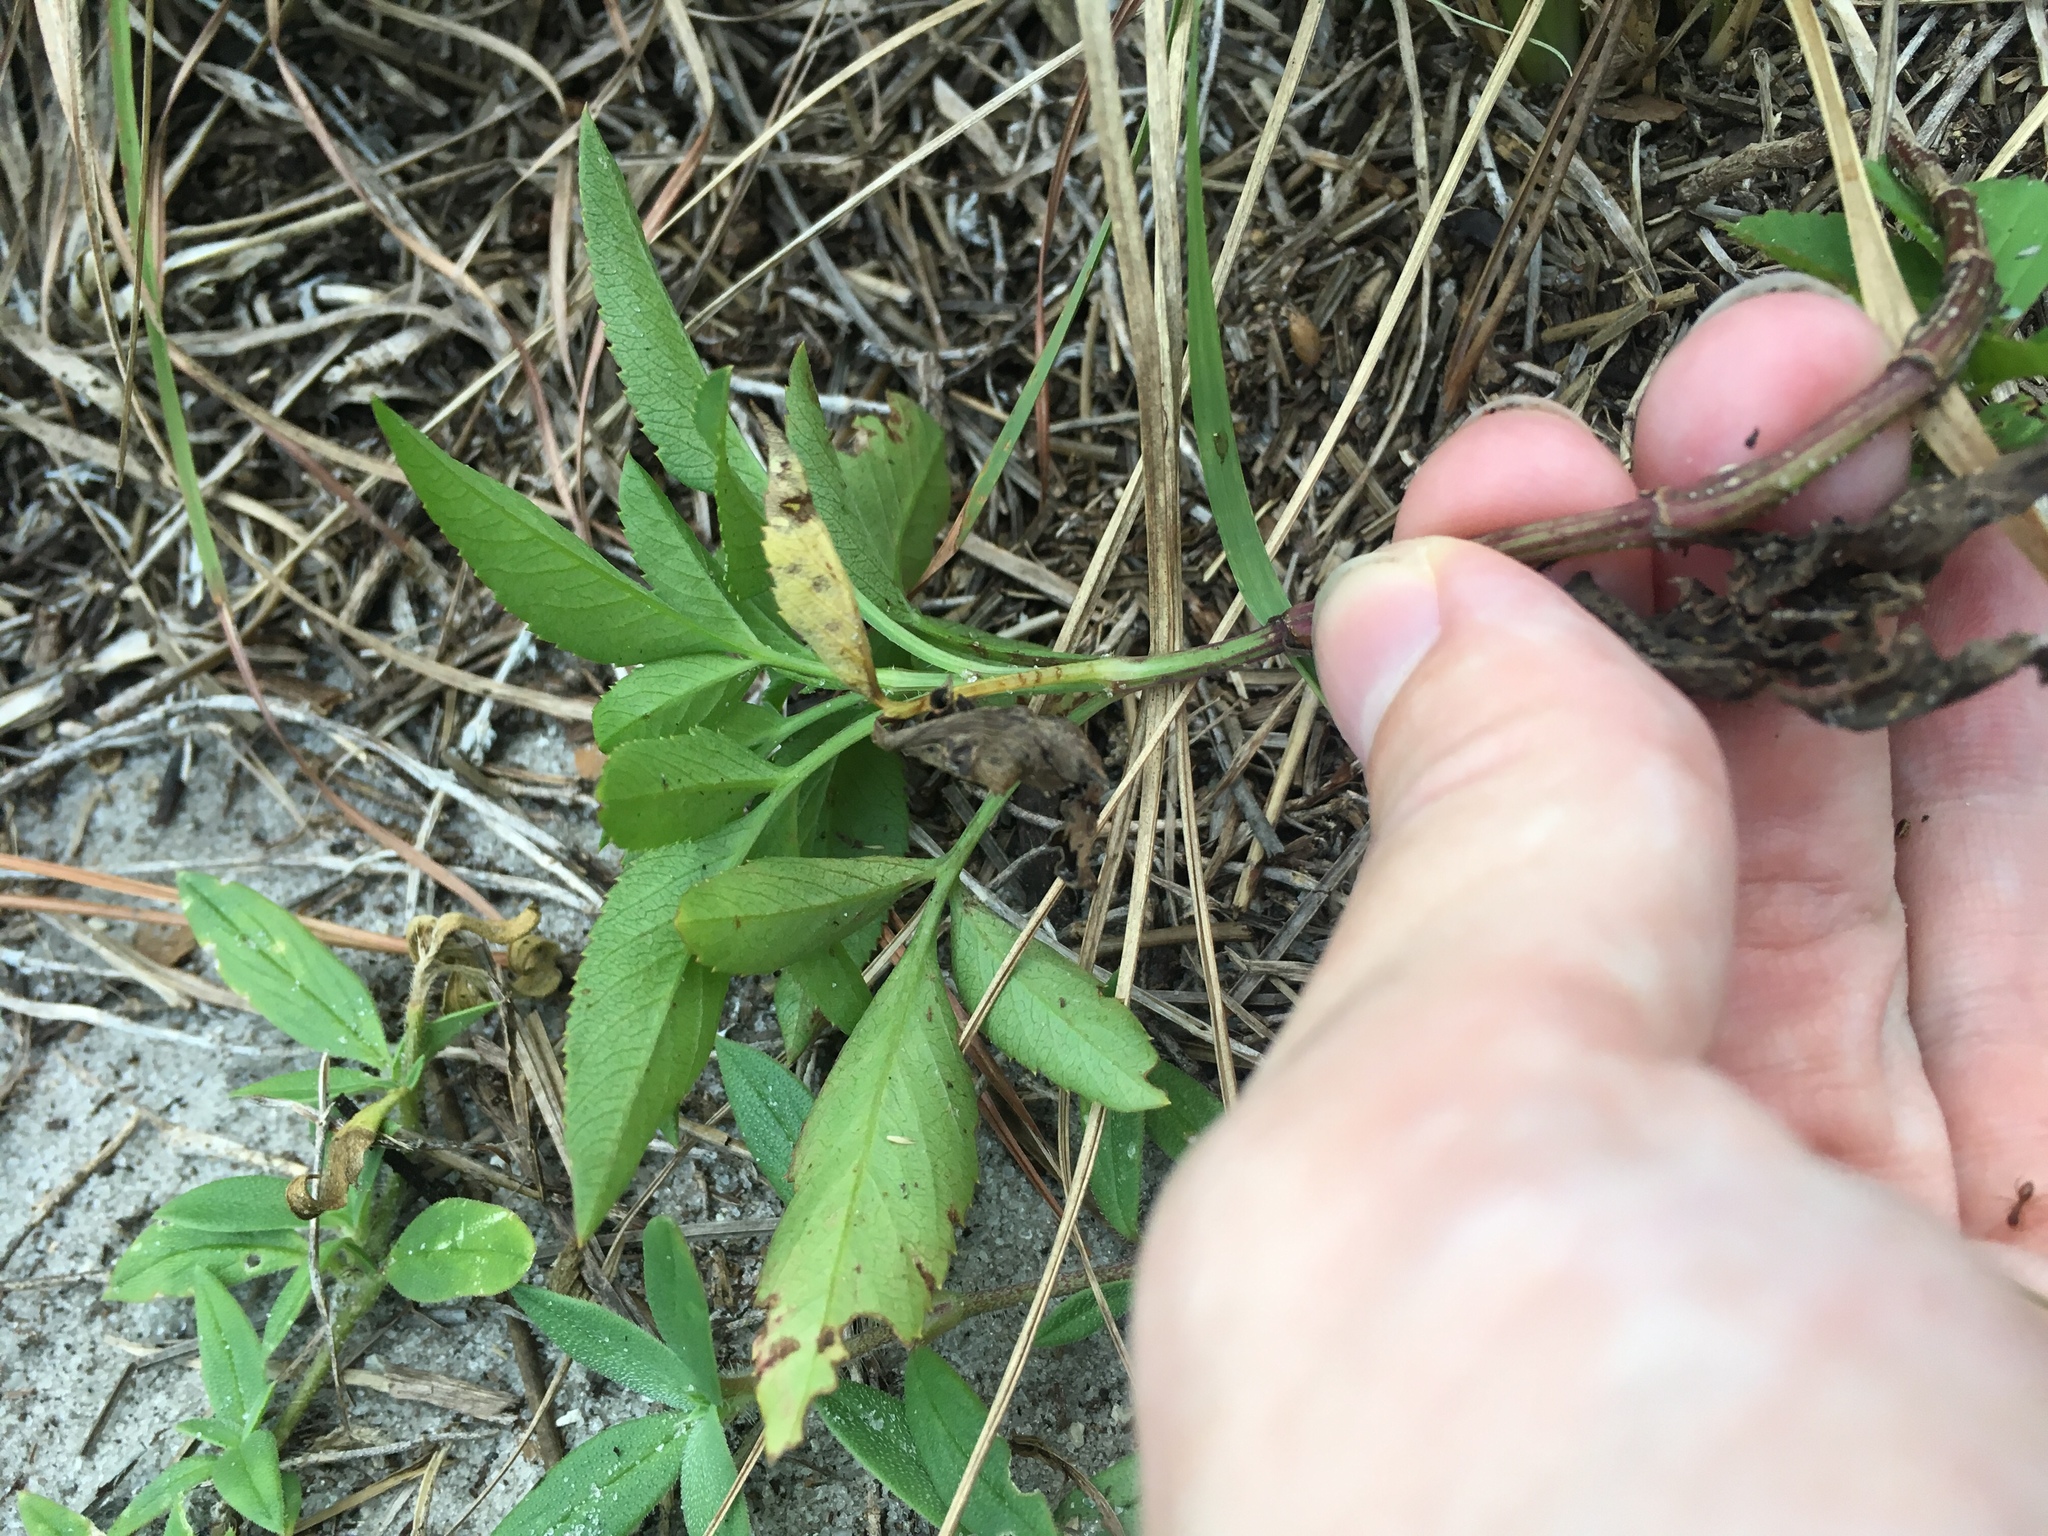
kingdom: Plantae
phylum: Tracheophyta
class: Magnoliopsida
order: Asterales
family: Asteraceae
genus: Bidens
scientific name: Bidens alba
